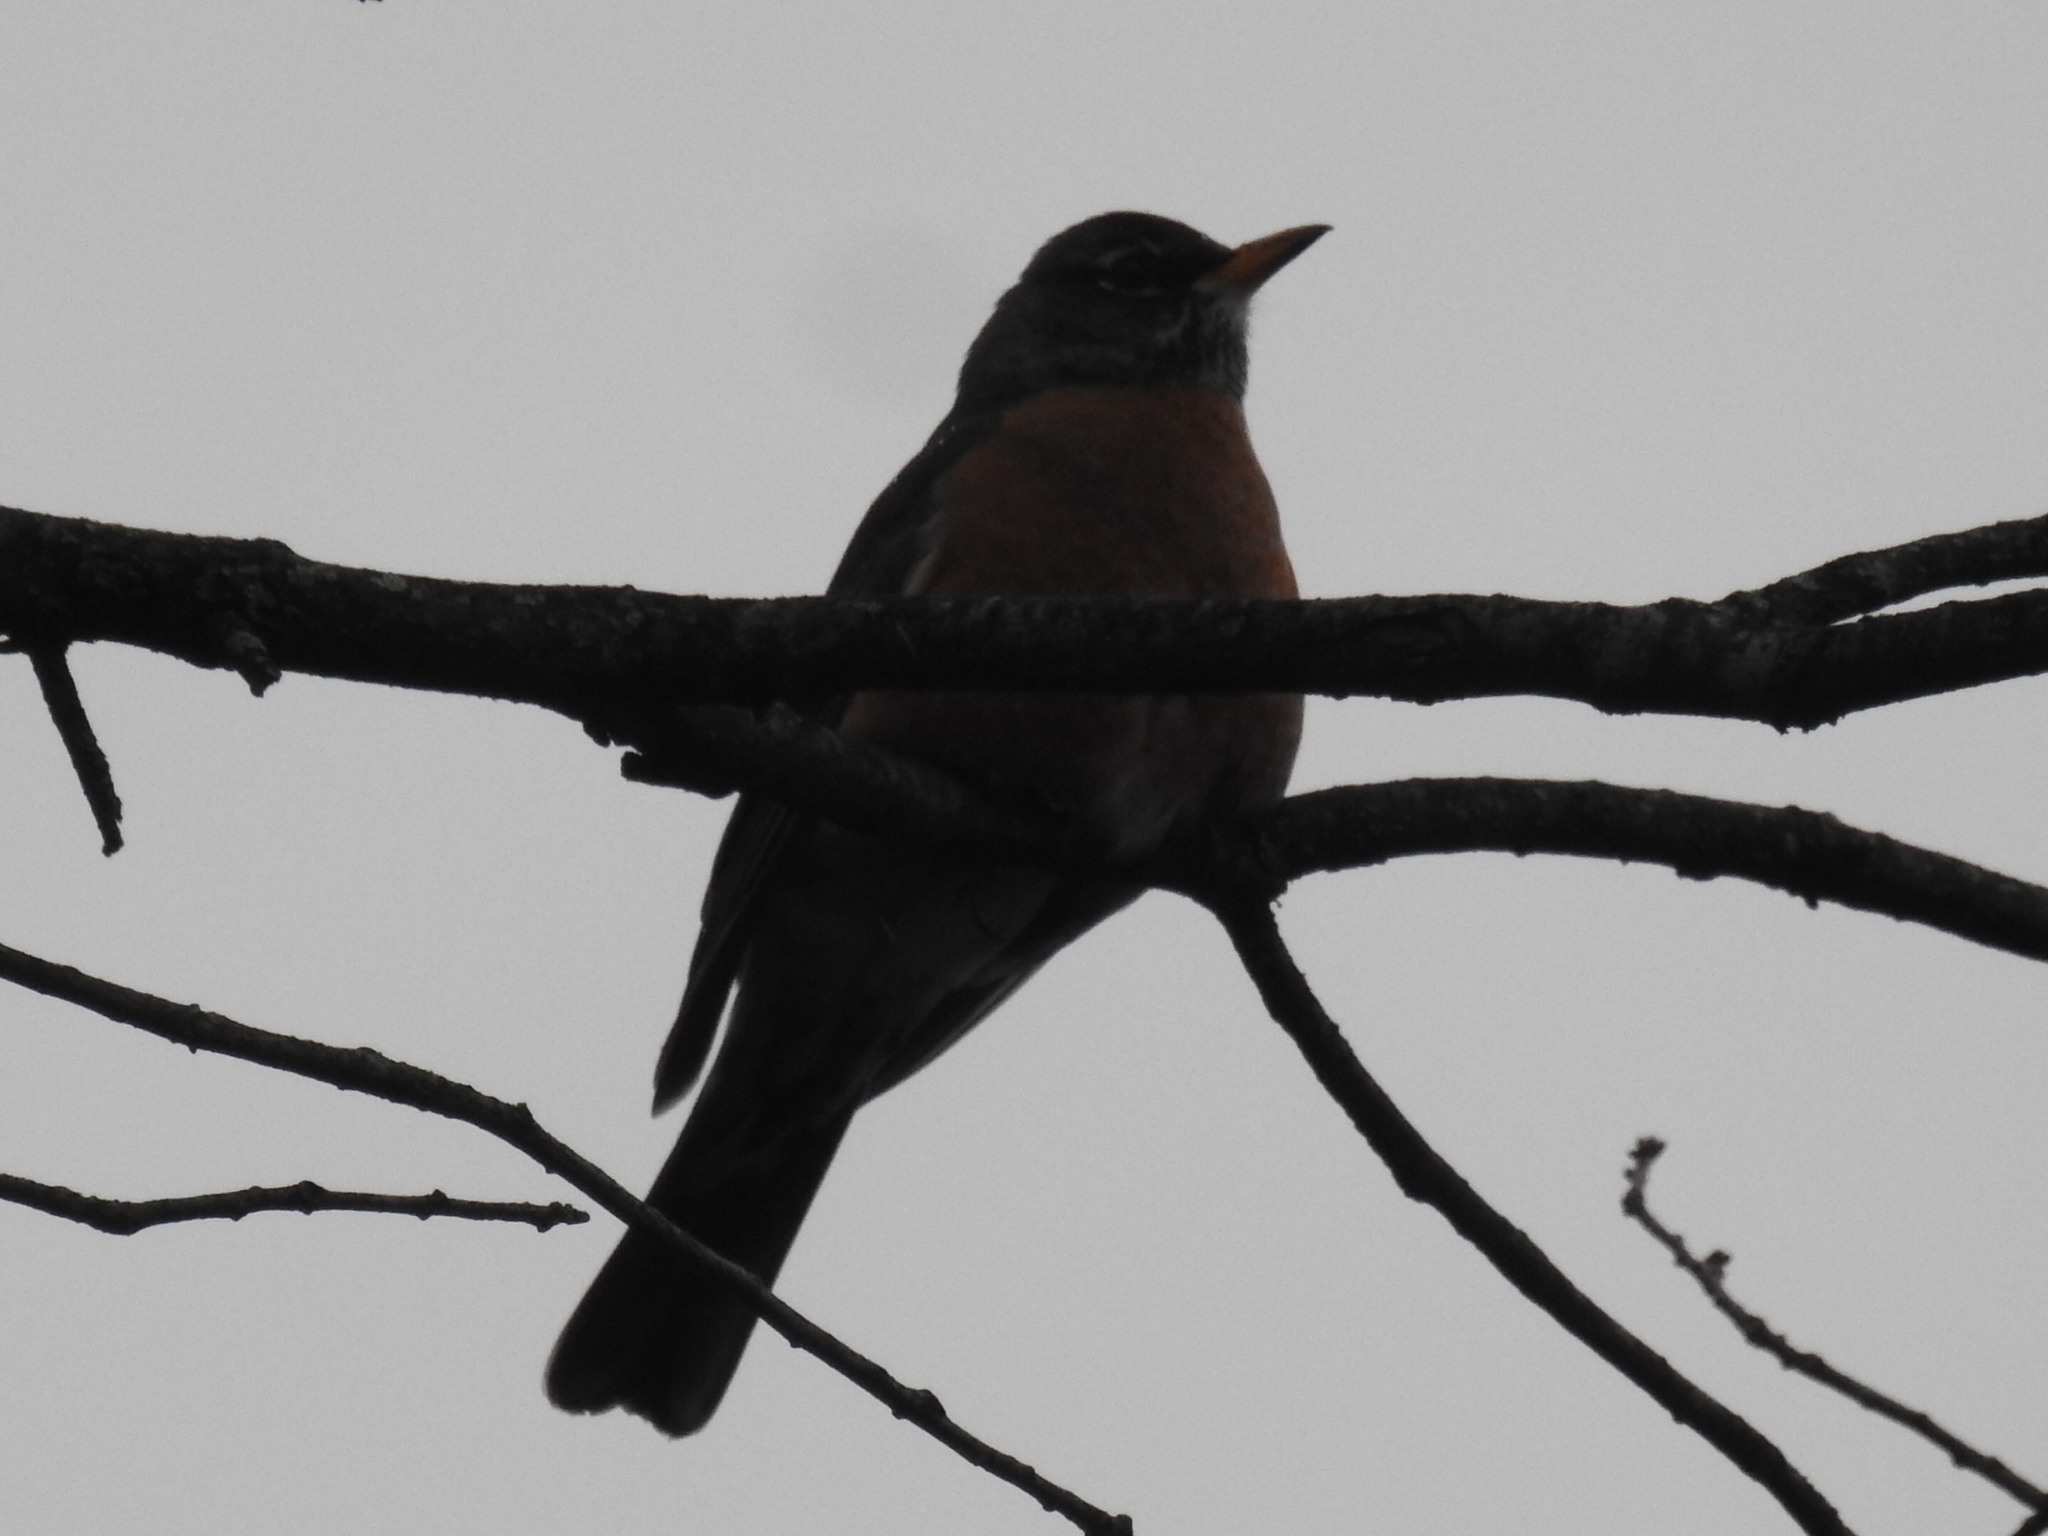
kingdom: Animalia
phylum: Chordata
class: Aves
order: Passeriformes
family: Turdidae
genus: Turdus
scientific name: Turdus migratorius
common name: American robin
